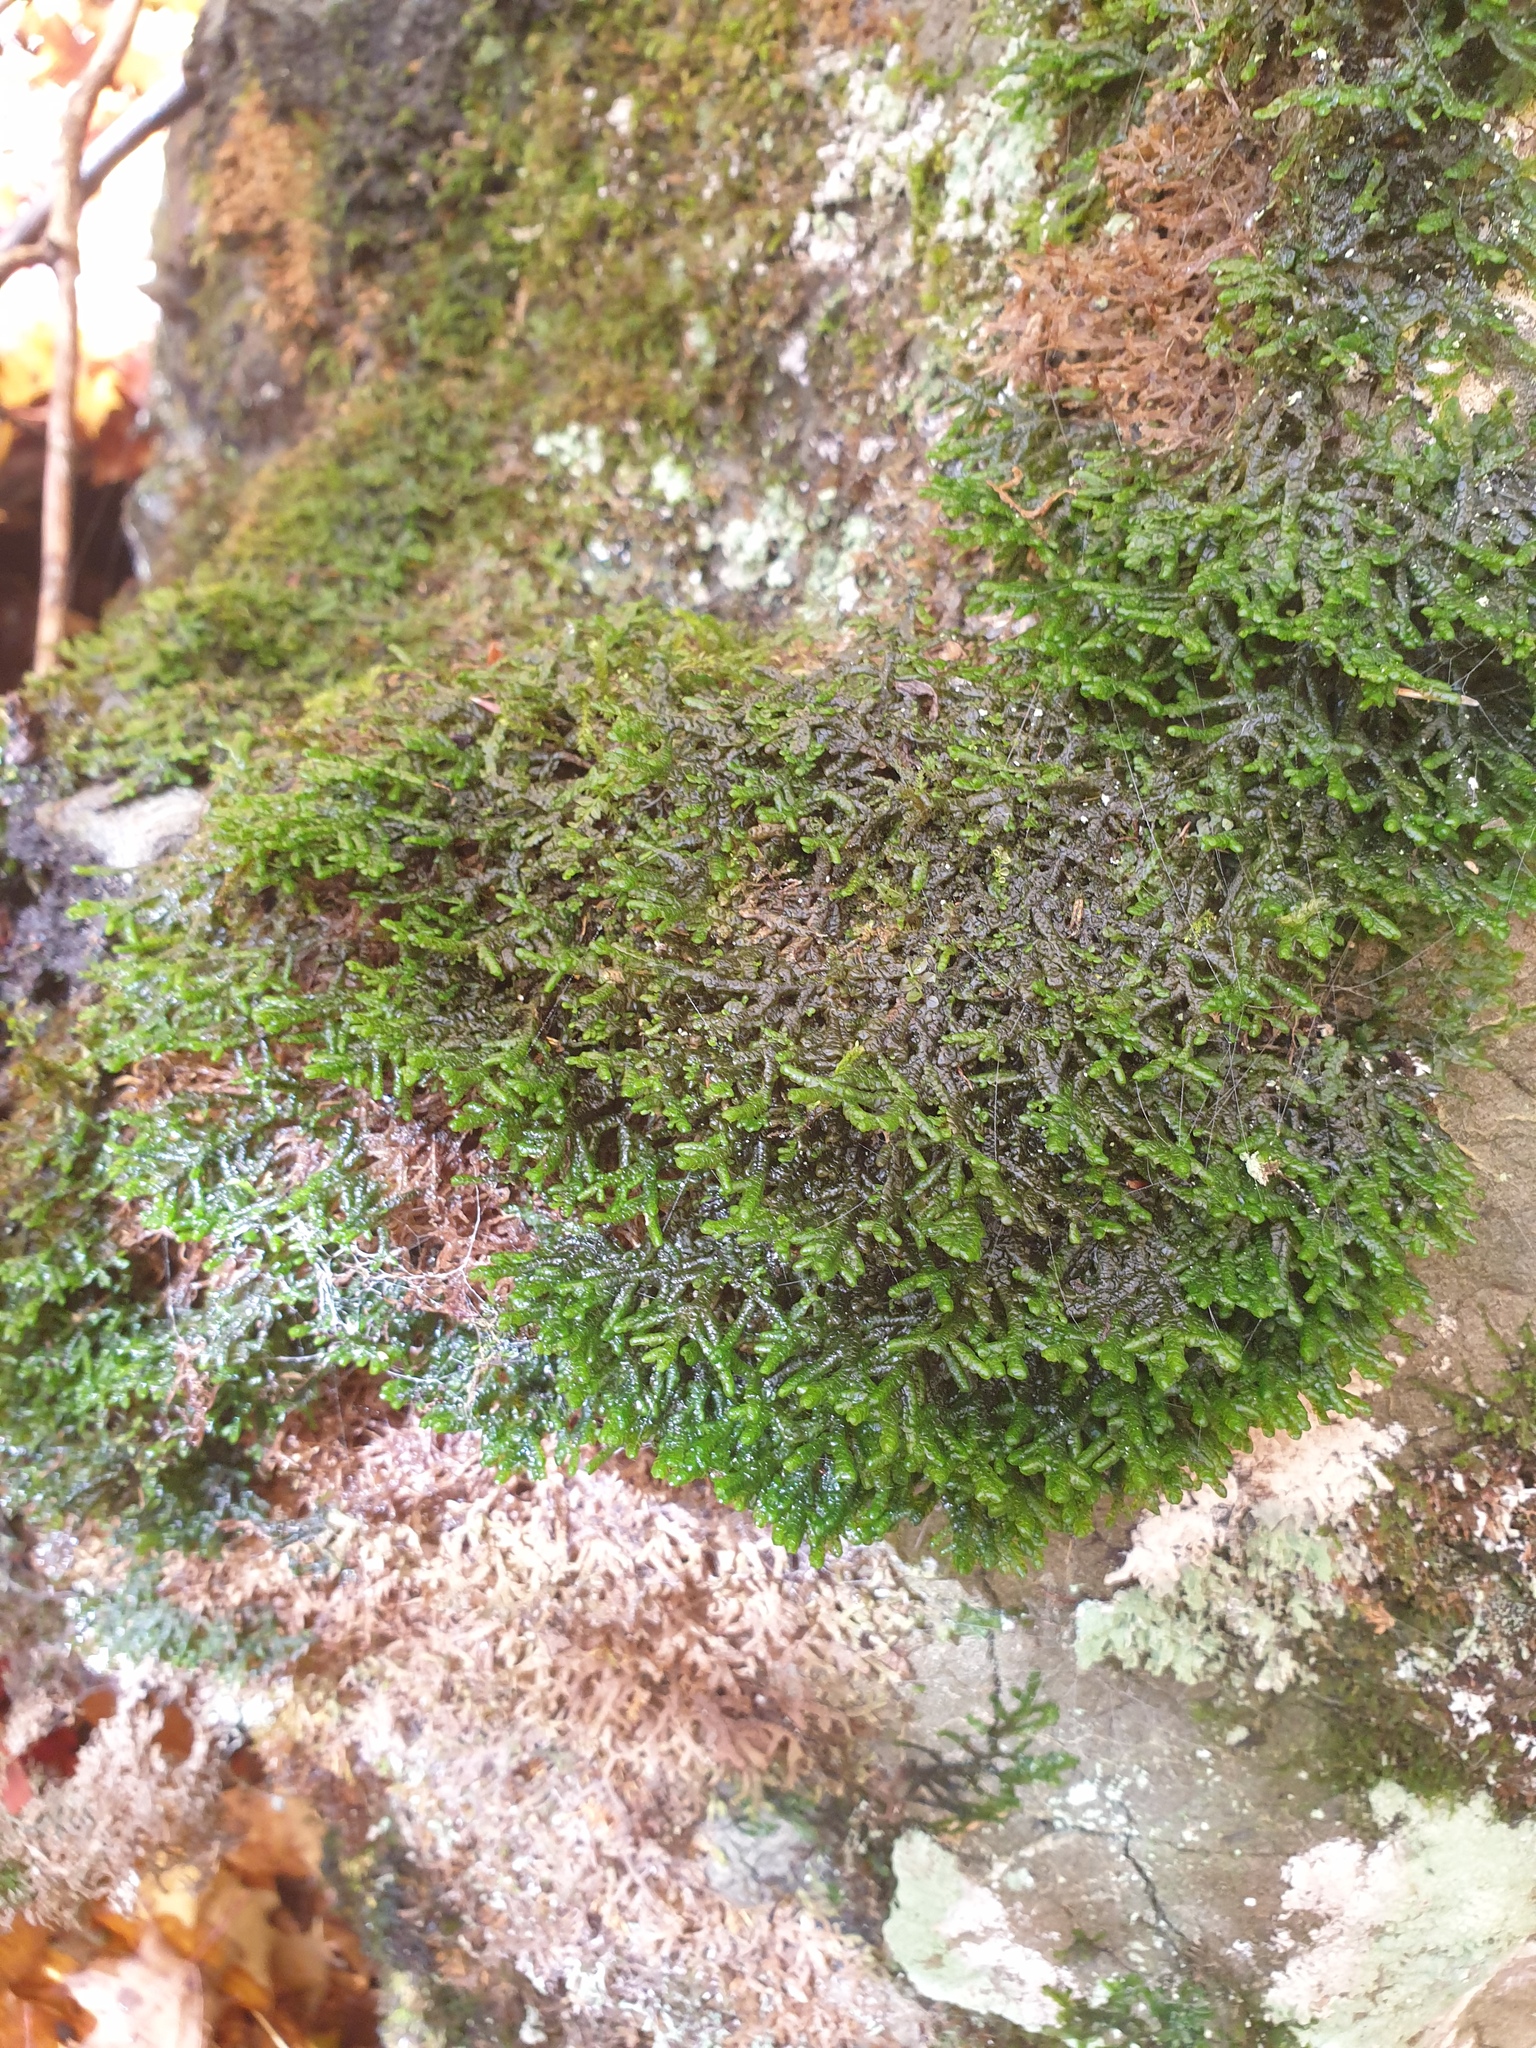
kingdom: Plantae
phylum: Marchantiophyta
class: Jungermanniopsida
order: Porellales
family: Porellaceae
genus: Porella
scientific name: Porella platyphylla
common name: Wall scalewort
